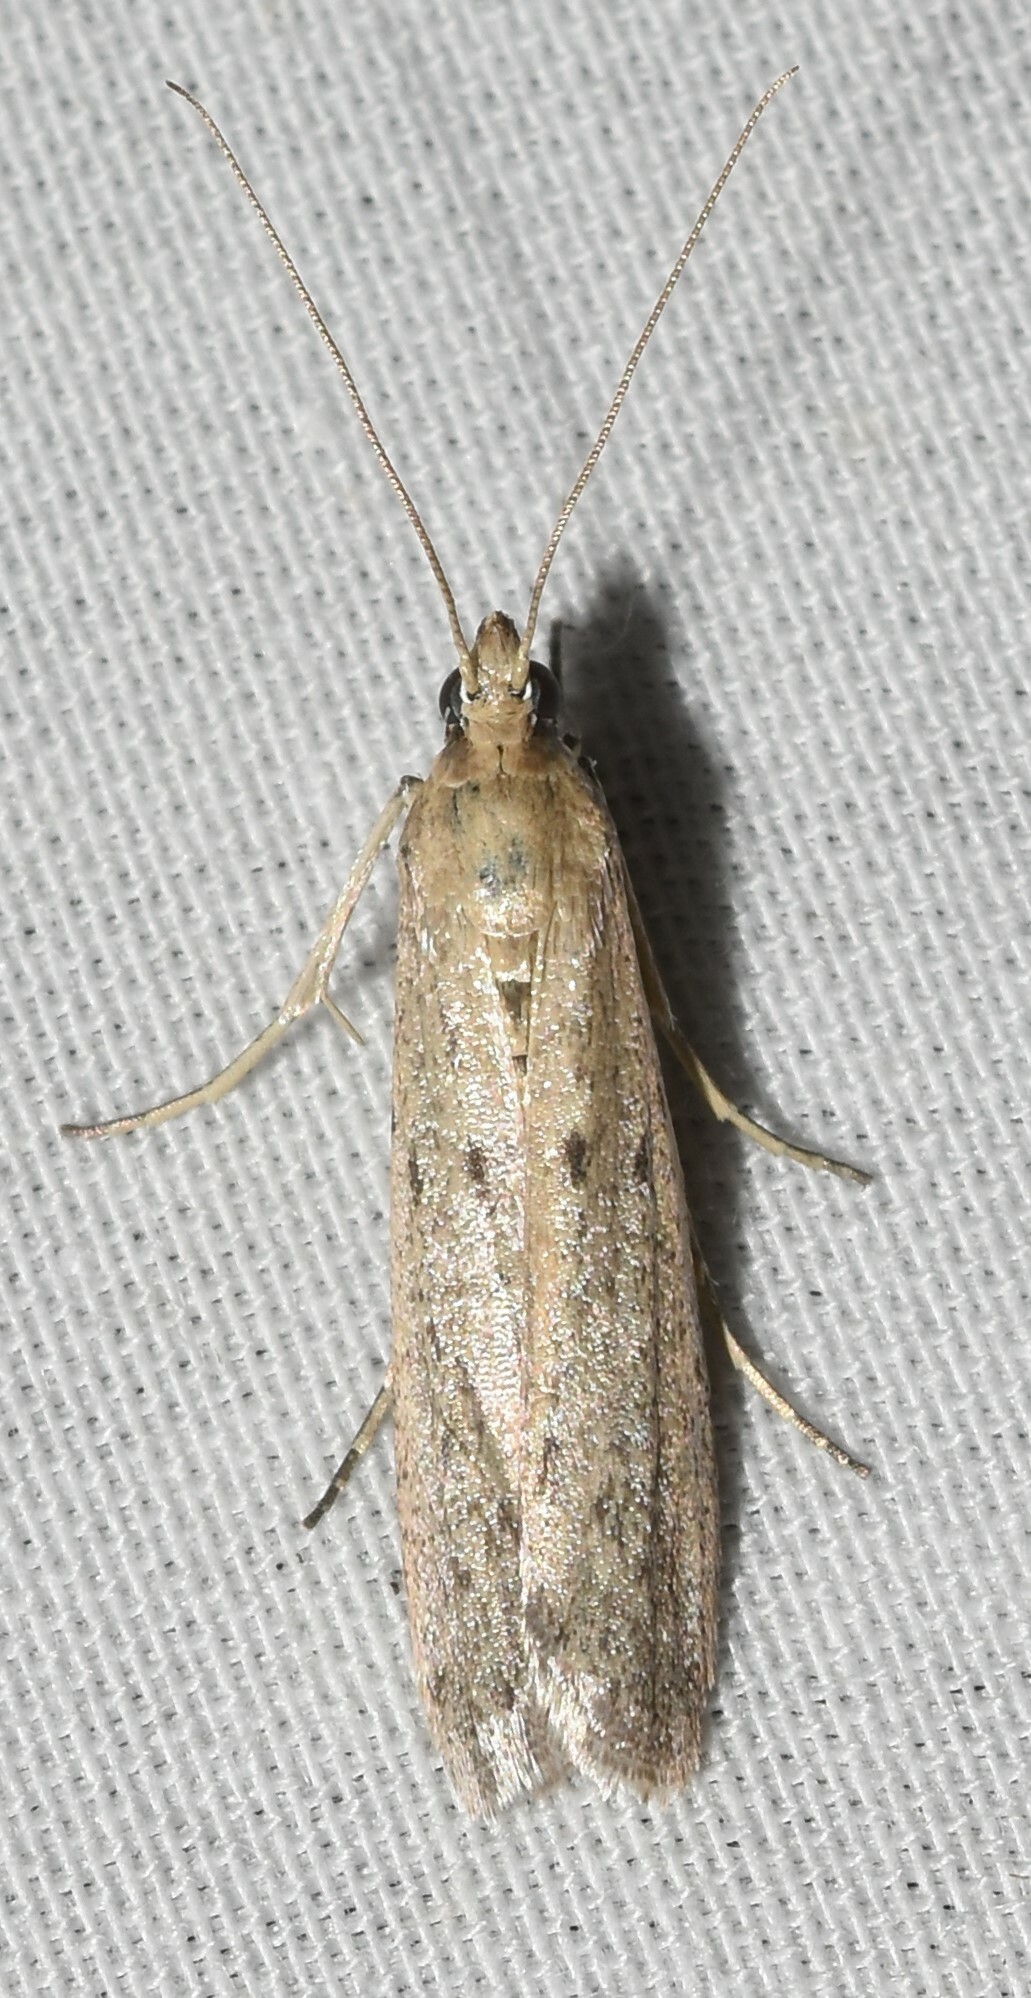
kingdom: Animalia
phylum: Arthropoda
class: Insecta
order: Lepidoptera
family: Pyralidae
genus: Homoeosoma
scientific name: Homoeosoma electella
